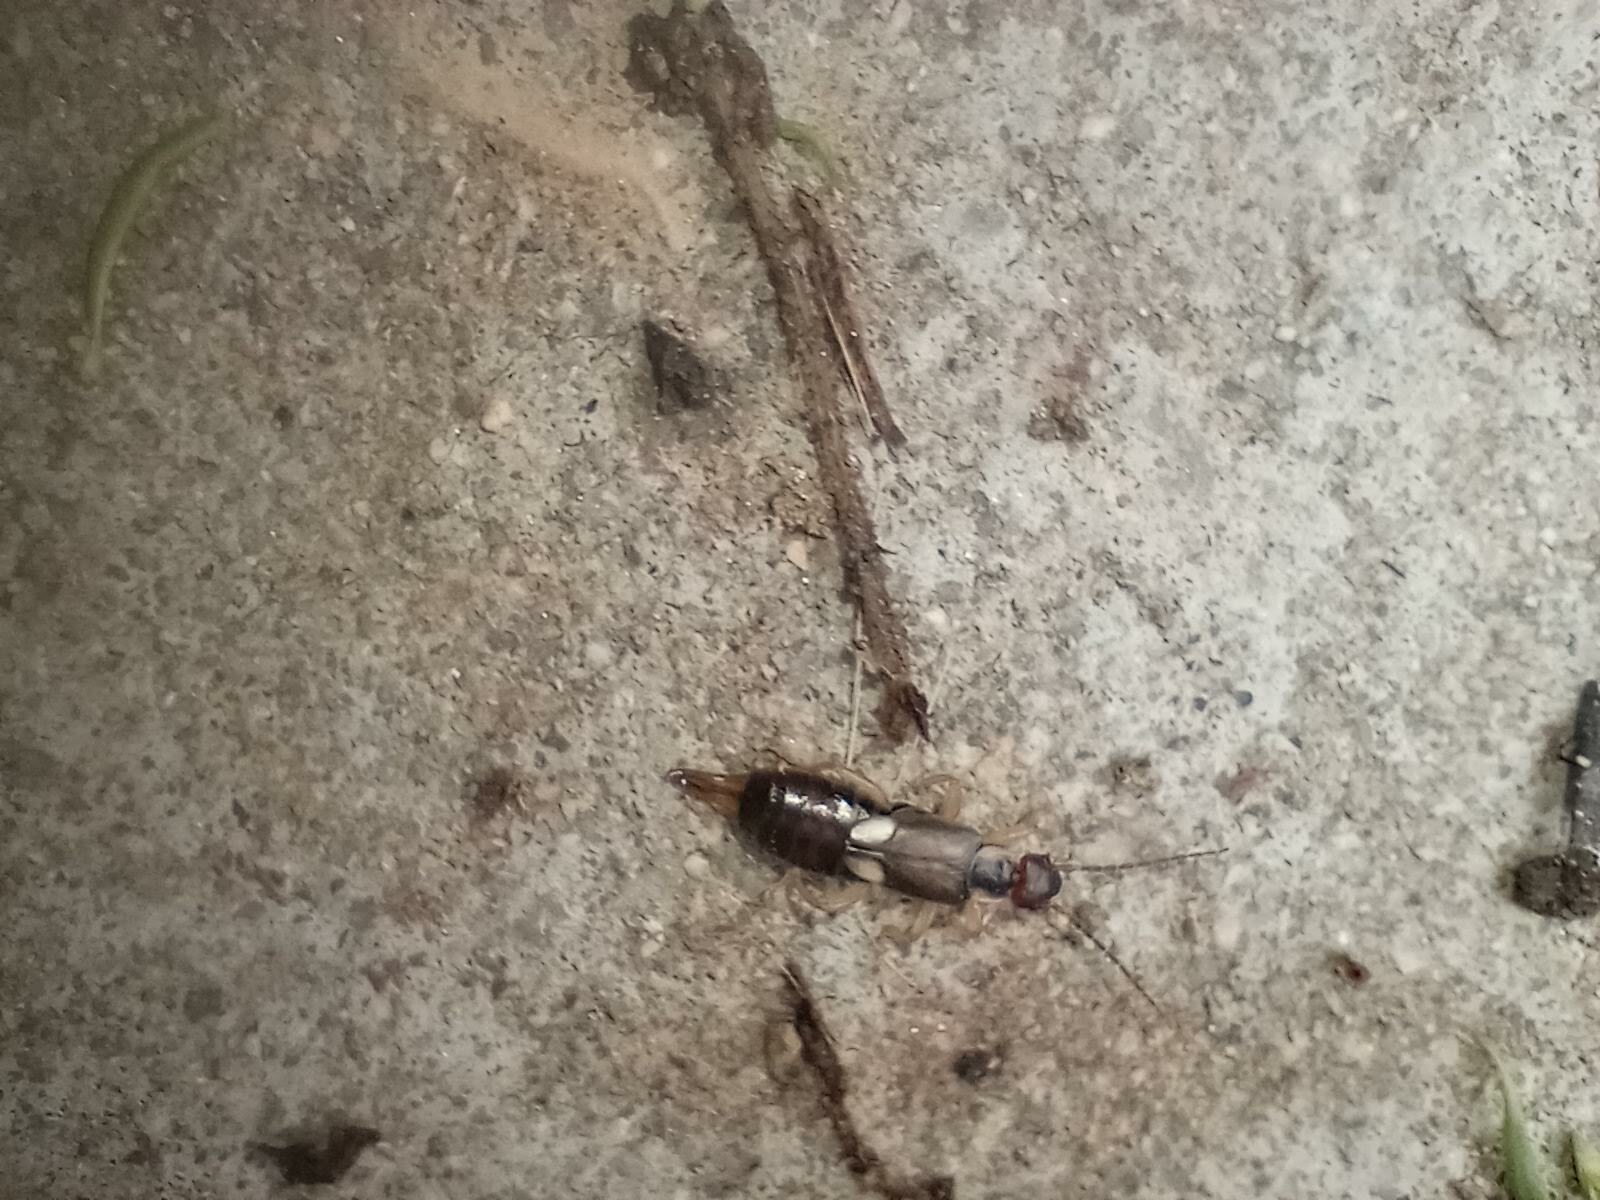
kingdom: Animalia
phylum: Arthropoda
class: Insecta
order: Dermaptera
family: Forficulidae
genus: Forficula
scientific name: Forficula
